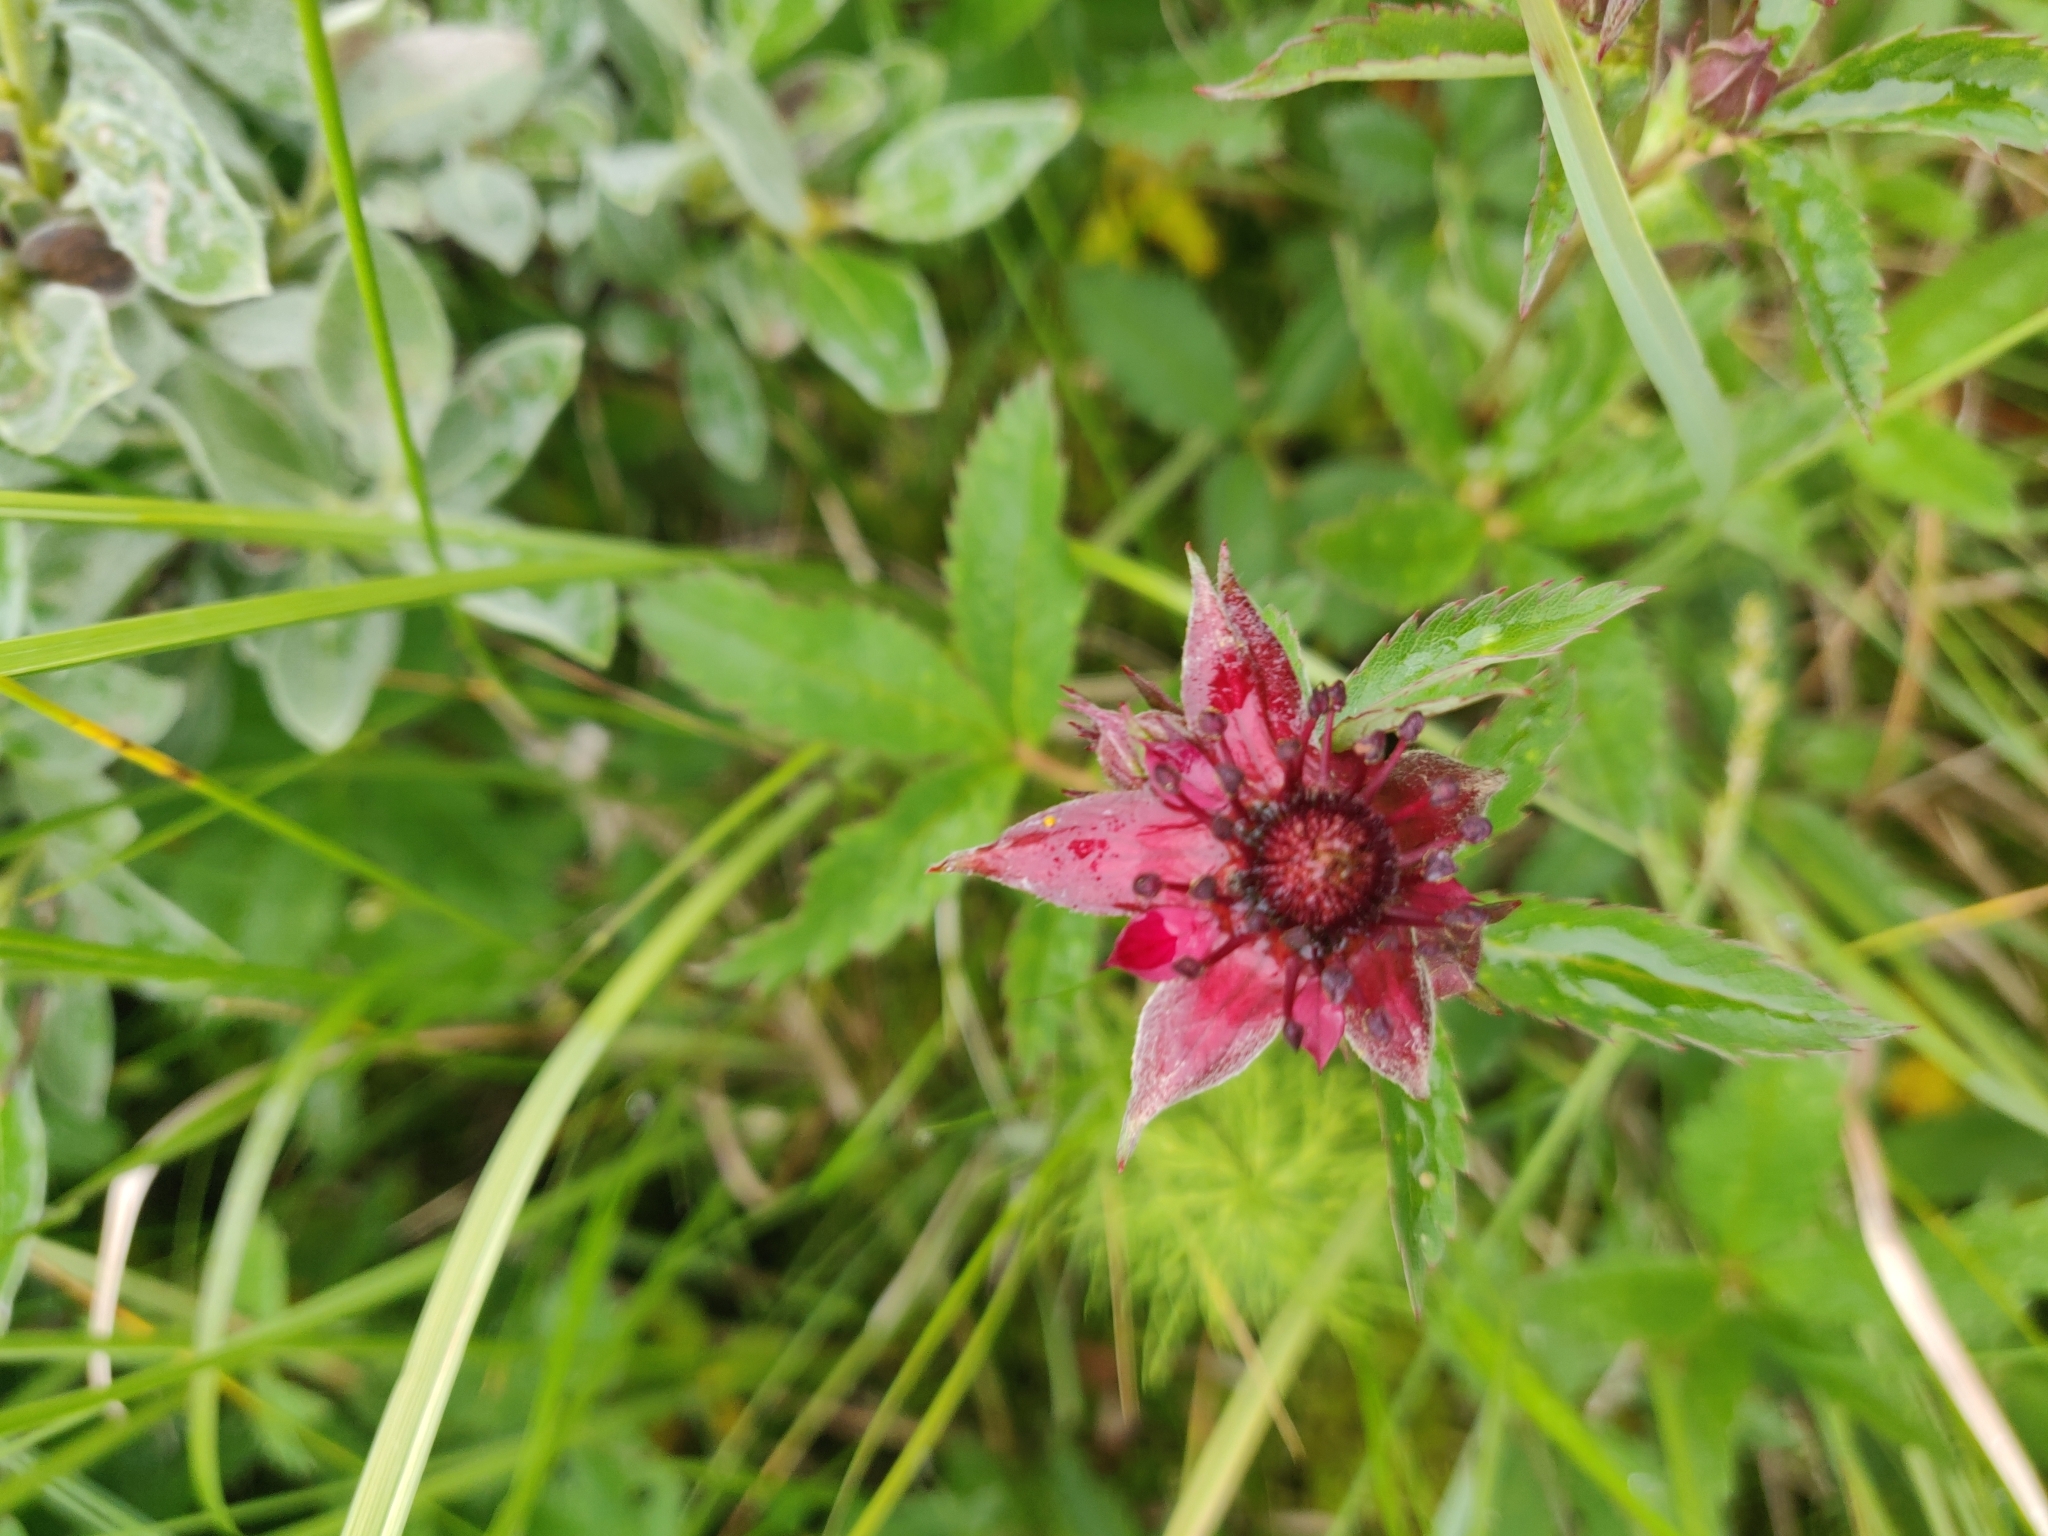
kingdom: Plantae
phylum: Tracheophyta
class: Magnoliopsida
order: Rosales
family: Rosaceae
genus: Comarum
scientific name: Comarum palustre
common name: Marsh cinquefoil
